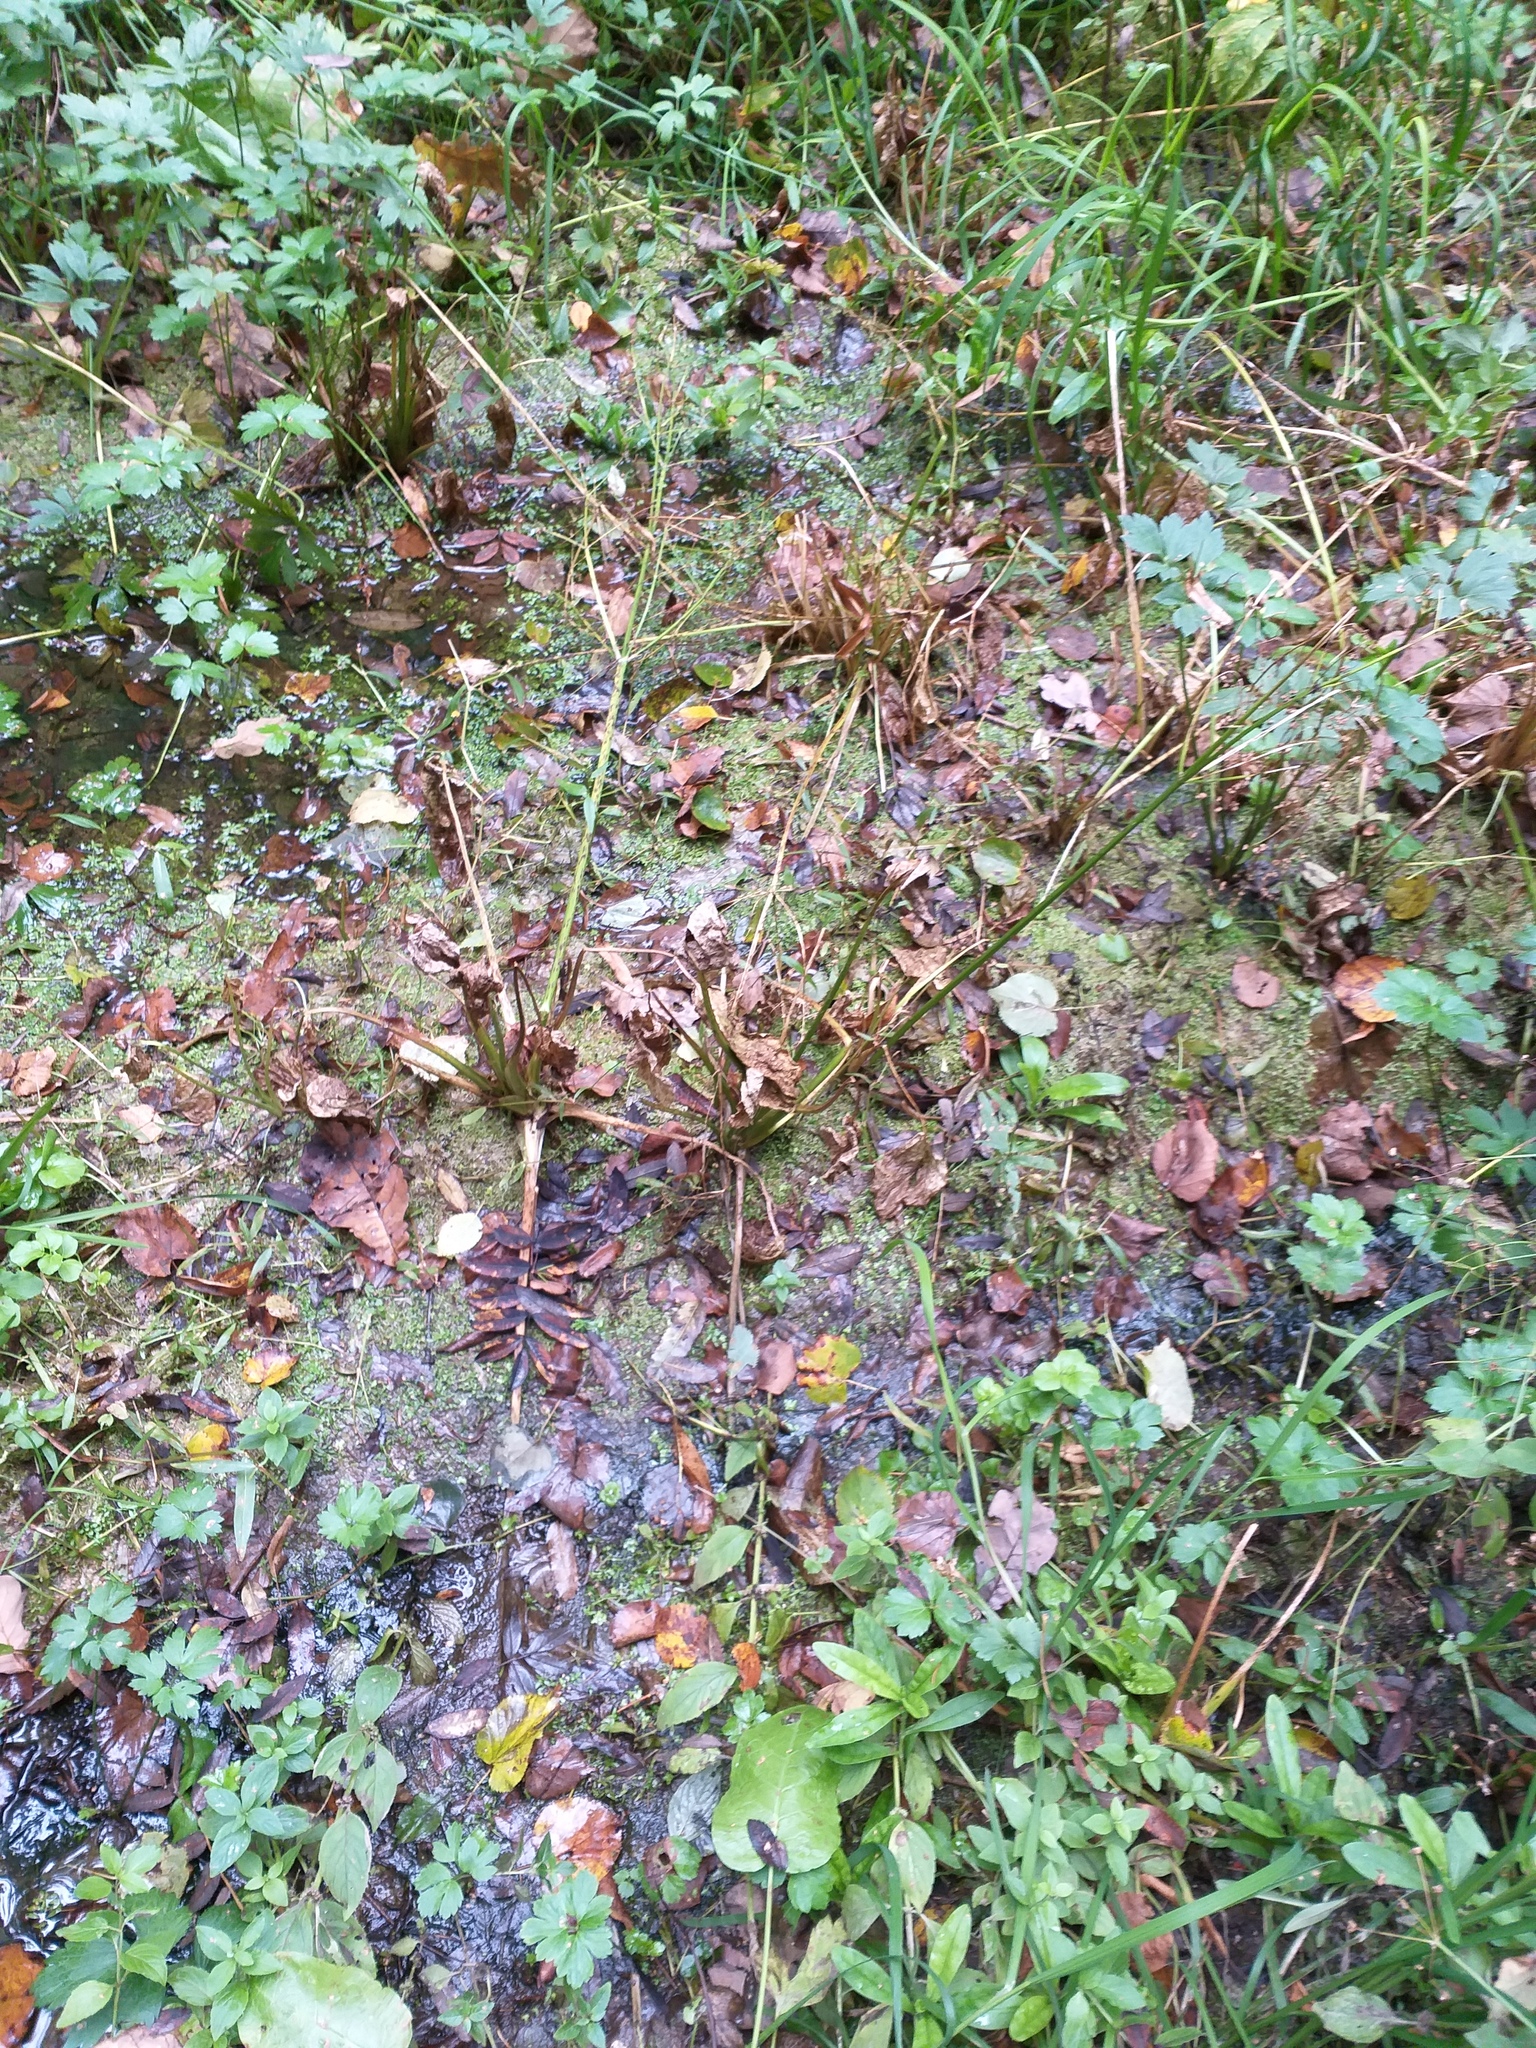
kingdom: Plantae
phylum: Tracheophyta
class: Liliopsida
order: Alismatales
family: Alismataceae
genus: Alisma
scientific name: Alisma plantago-aquatica
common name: Water-plantain
